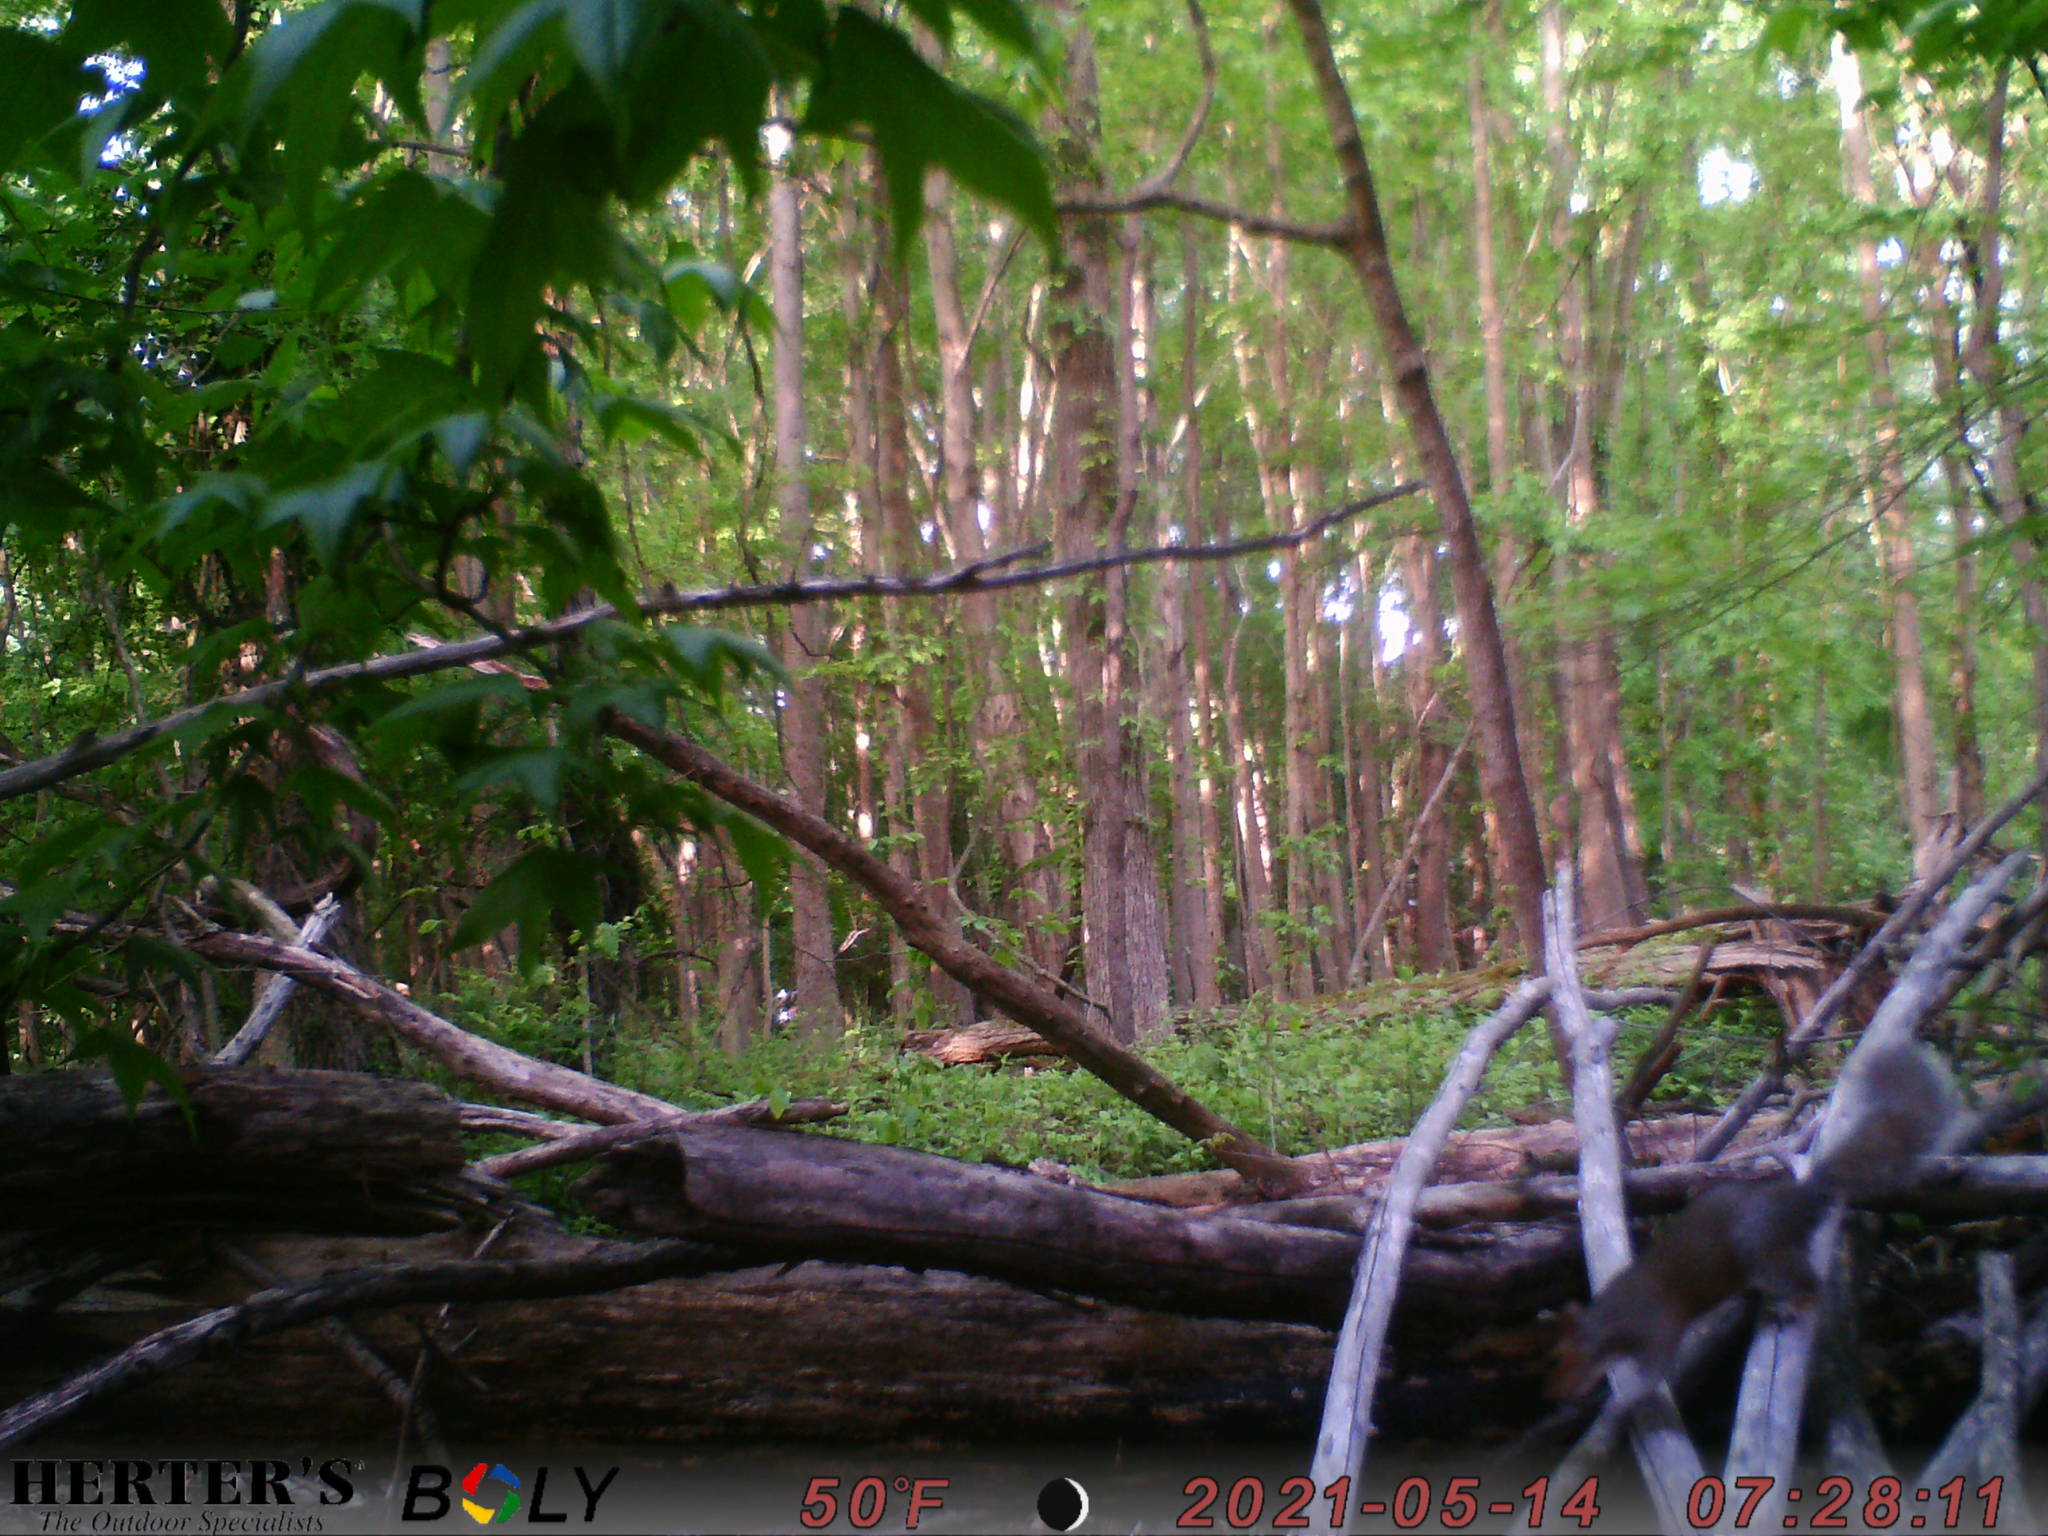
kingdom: Animalia
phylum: Chordata
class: Mammalia
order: Rodentia
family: Sciuridae
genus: Sciurus
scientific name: Sciurus carolinensis
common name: Eastern gray squirrel
